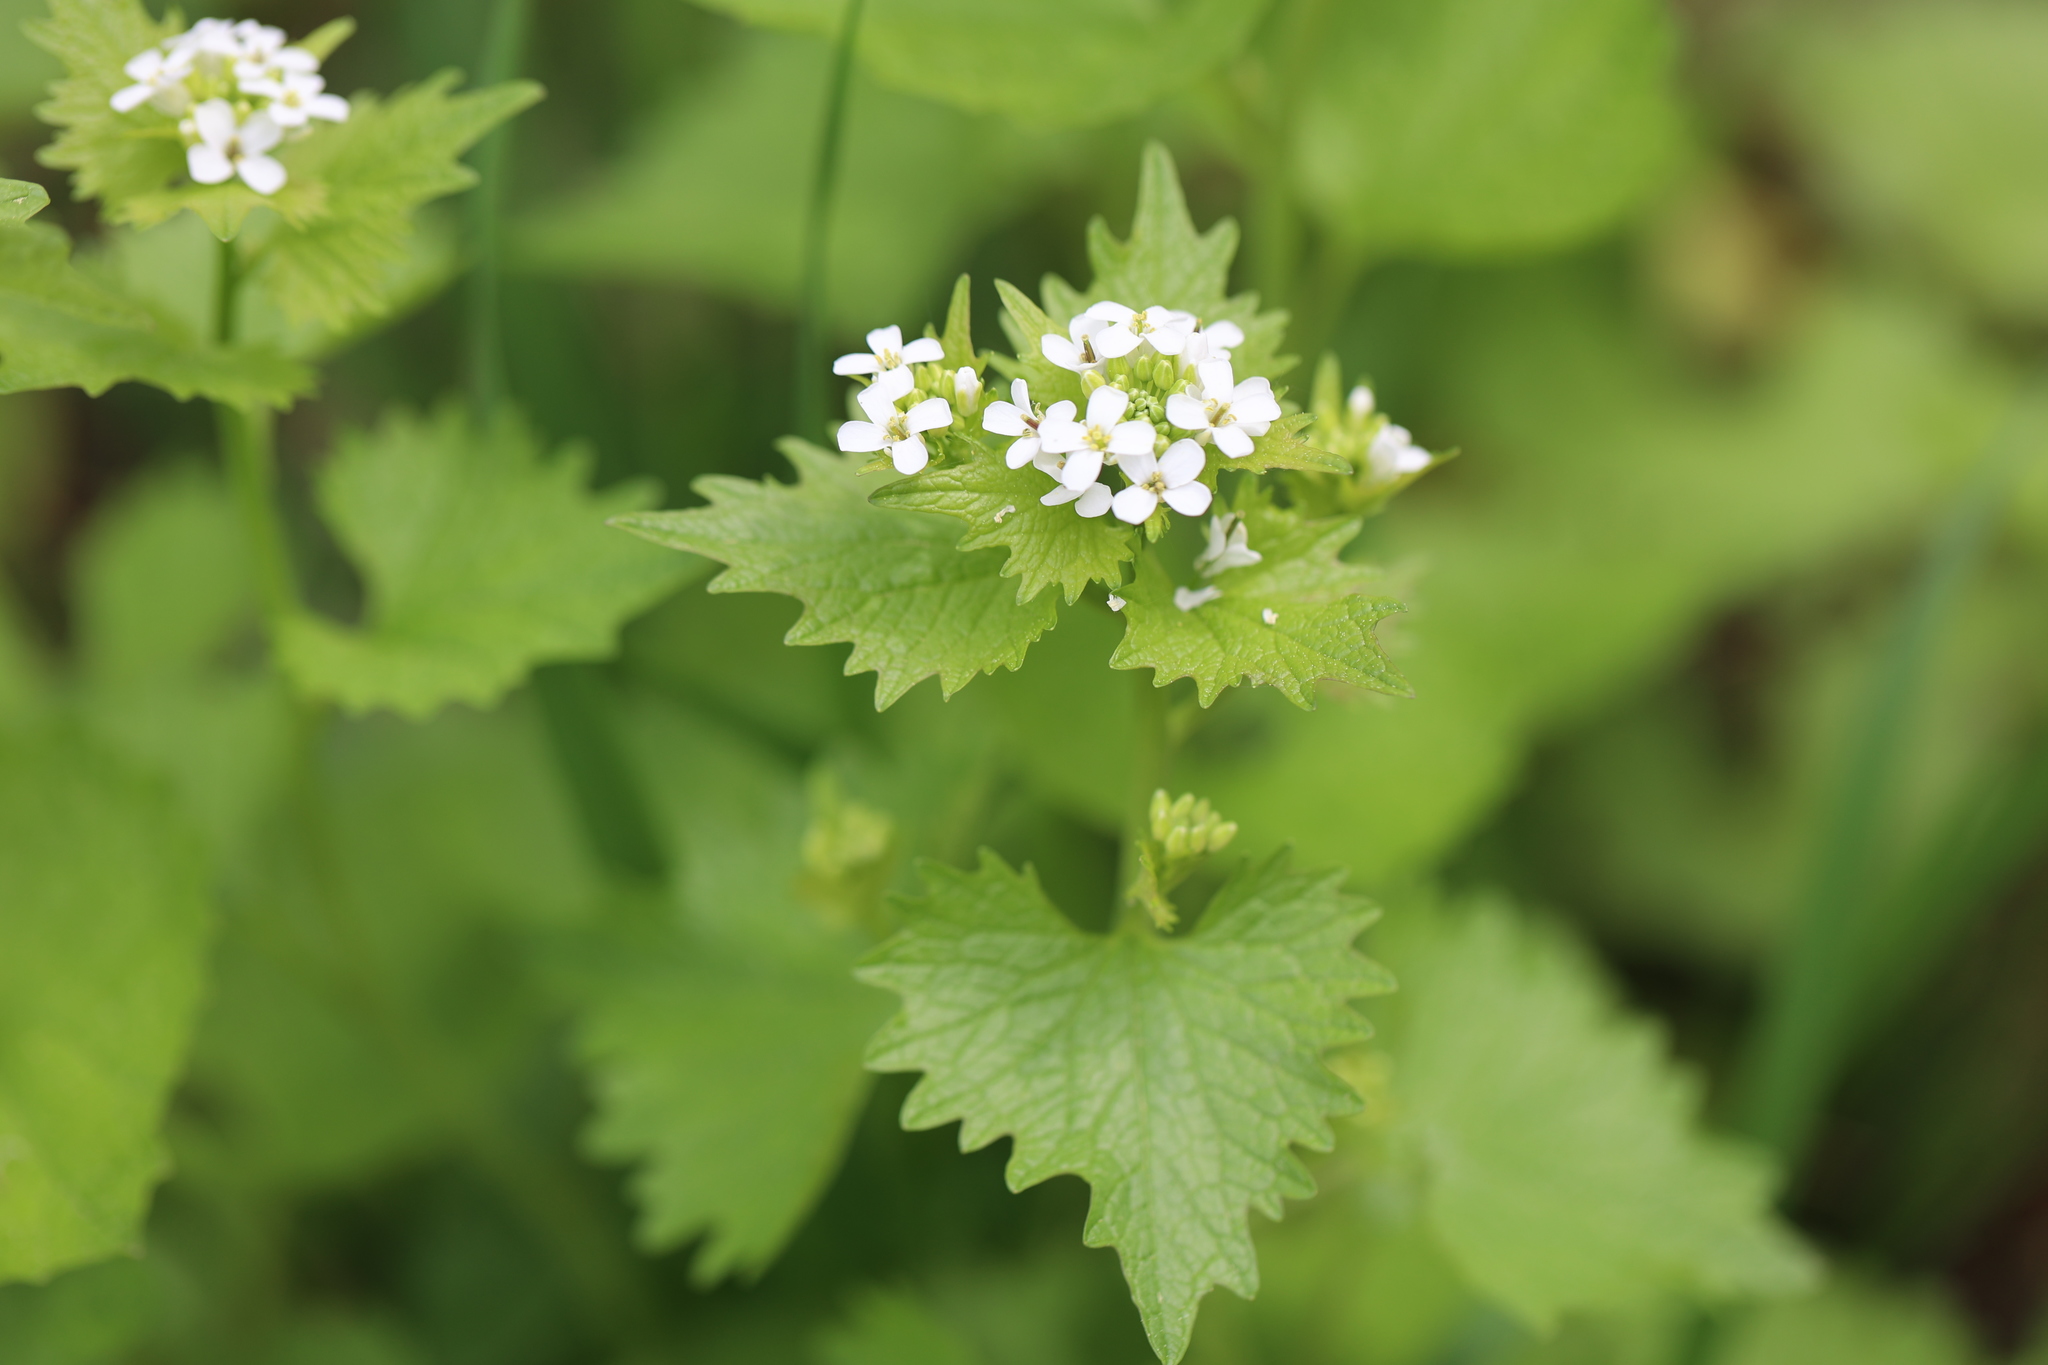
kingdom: Plantae
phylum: Tracheophyta
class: Magnoliopsida
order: Brassicales
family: Brassicaceae
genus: Alliaria
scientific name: Alliaria petiolata
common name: Garlic mustard
